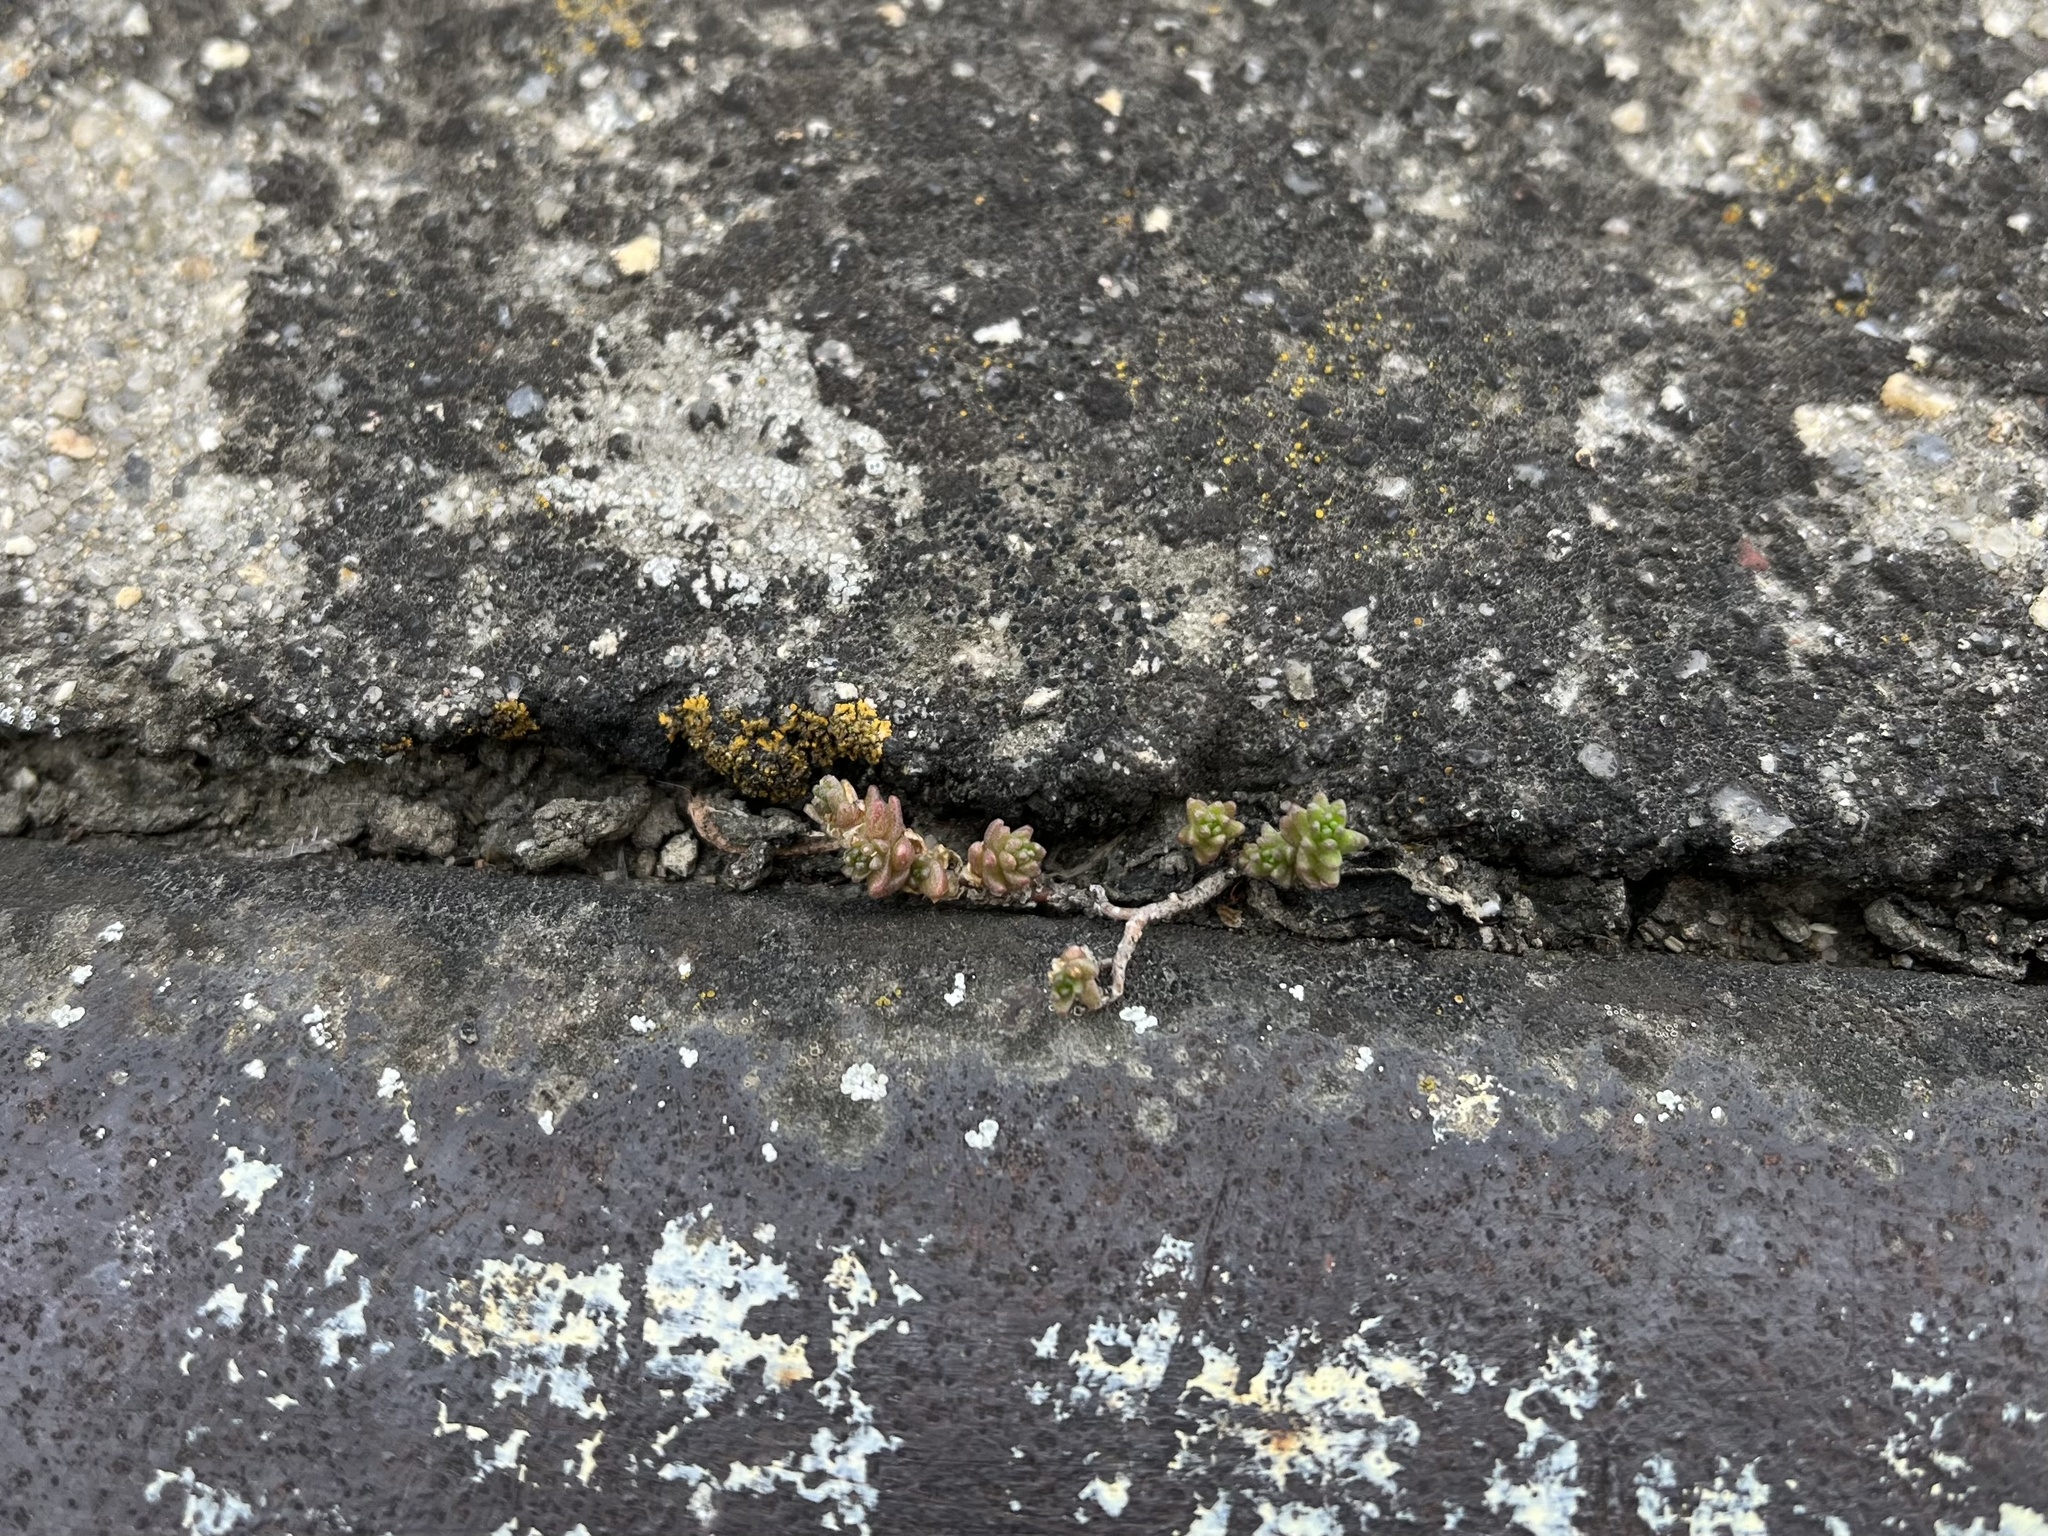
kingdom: Plantae
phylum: Tracheophyta
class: Magnoliopsida
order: Saxifragales
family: Crassulaceae
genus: Sedum
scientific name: Sedum acre
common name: Biting stonecrop
